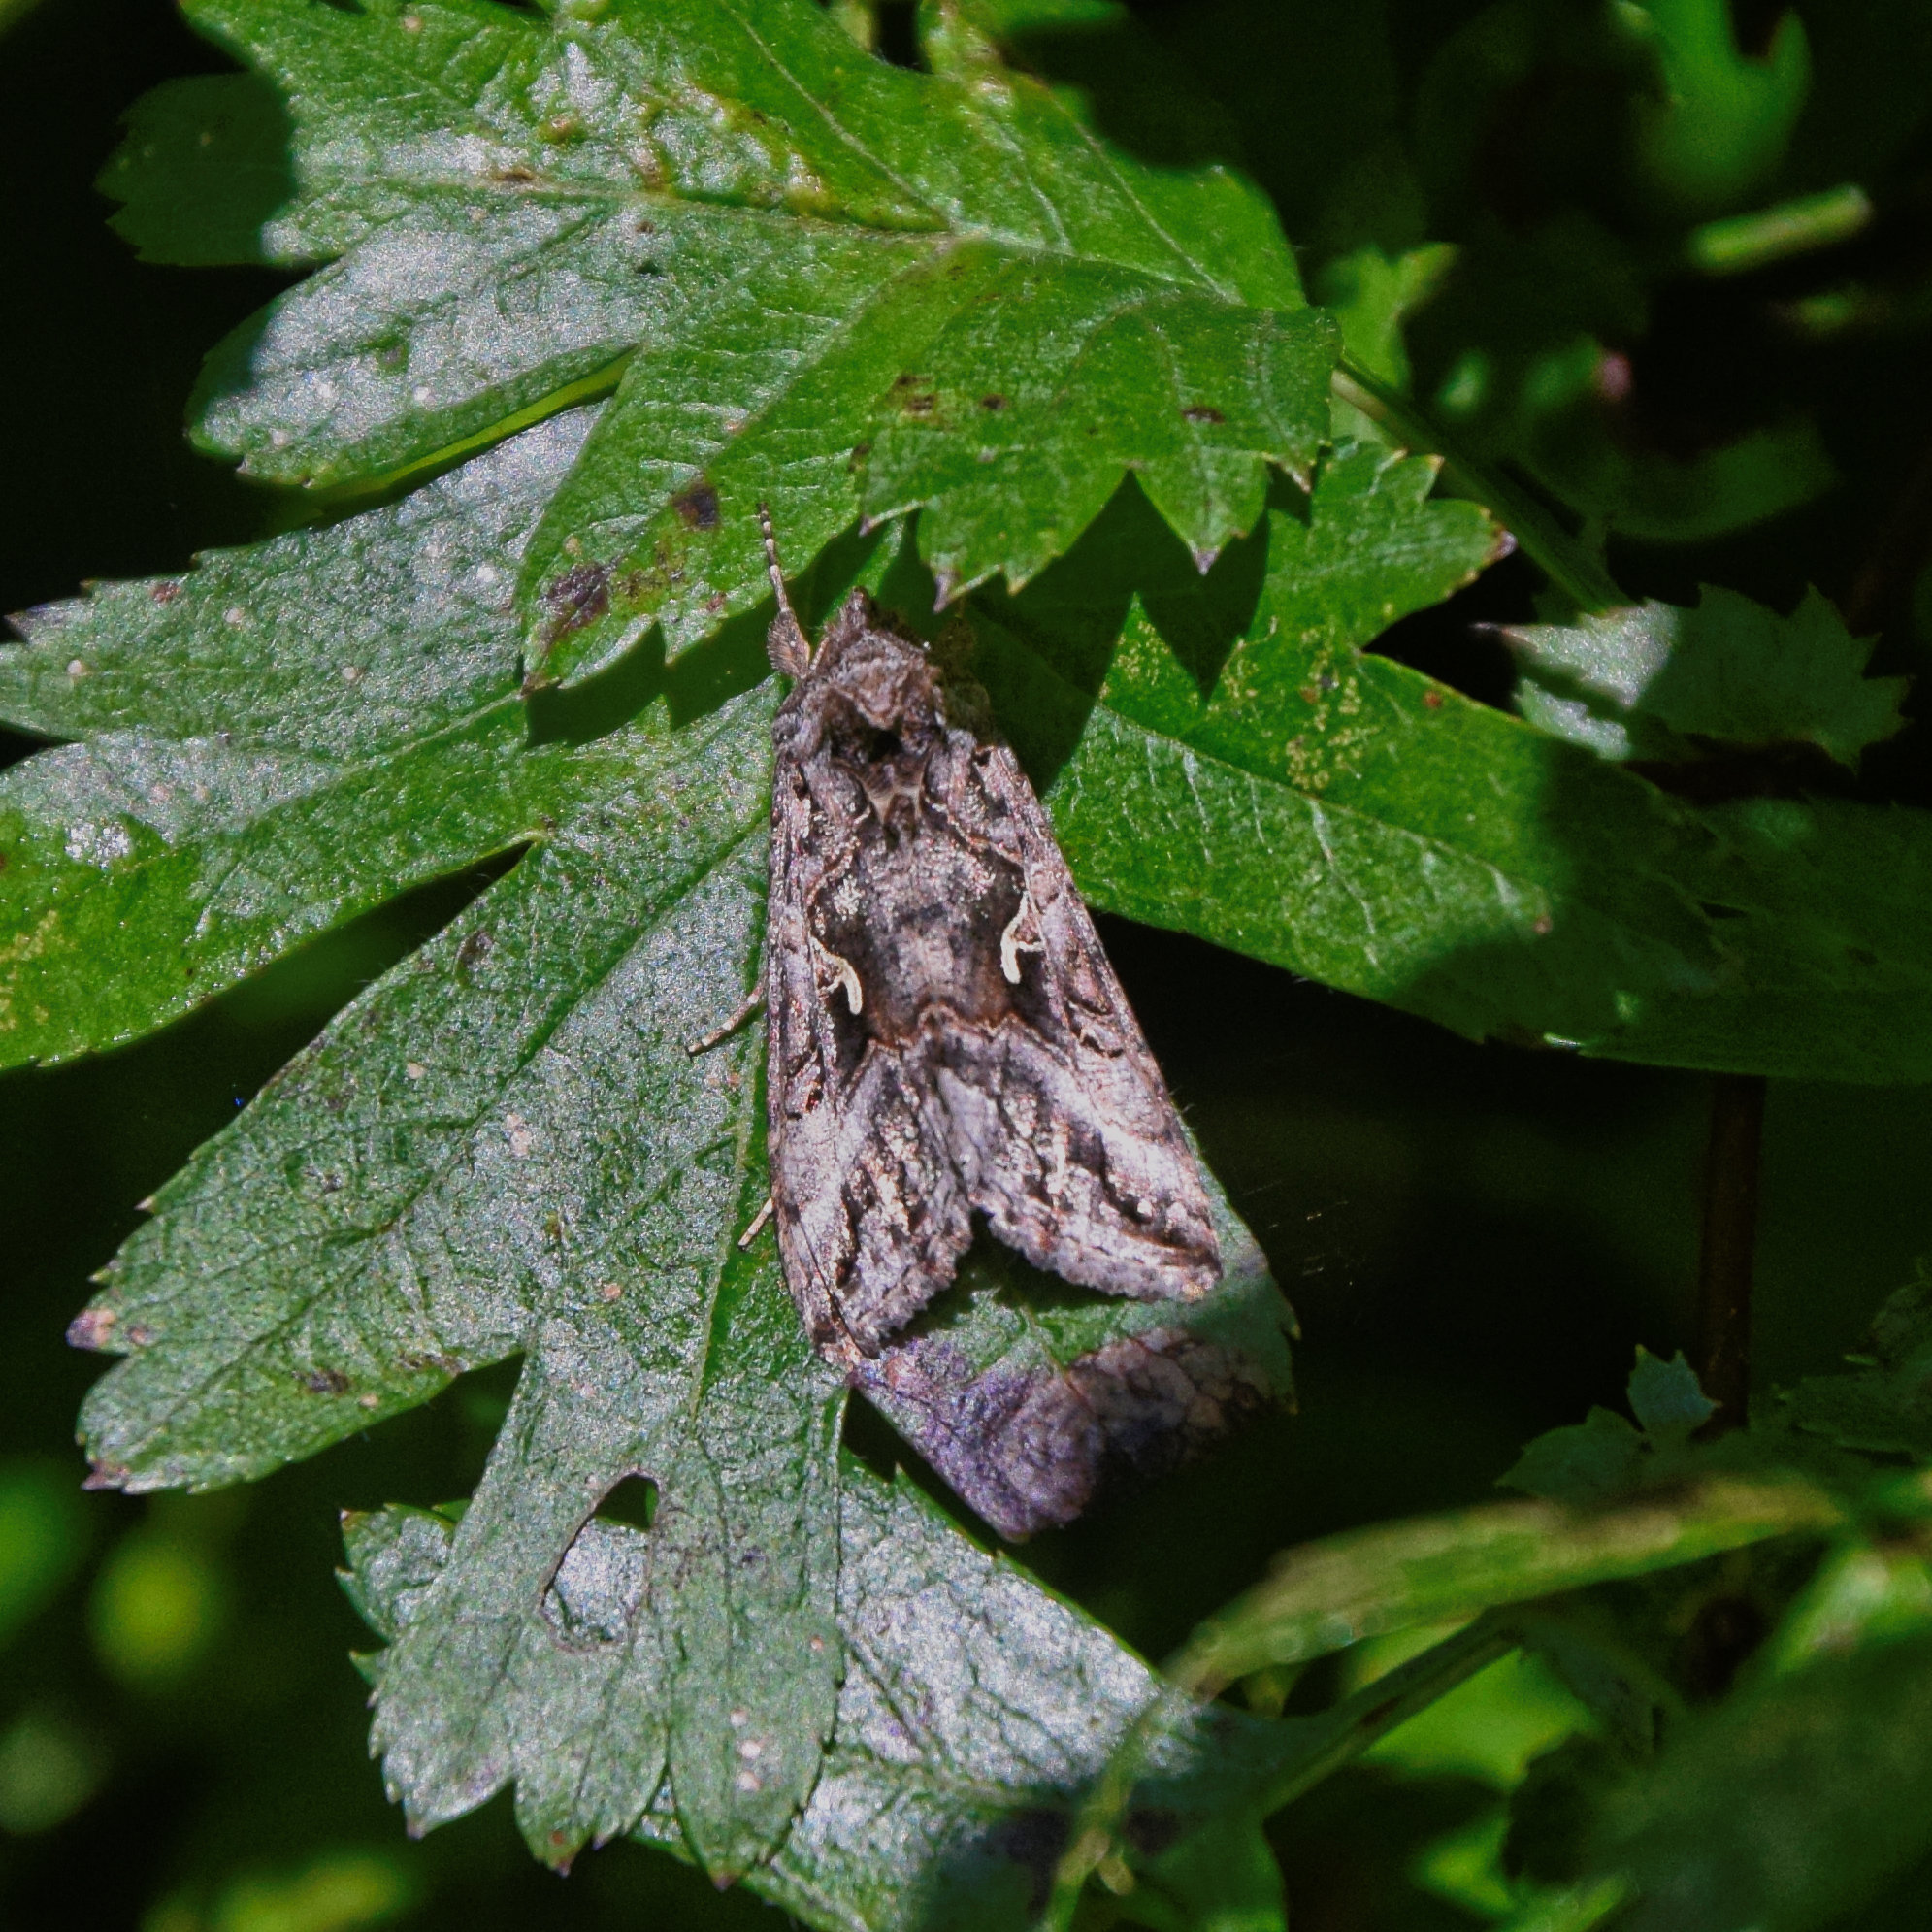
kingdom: Animalia
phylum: Arthropoda
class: Insecta
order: Lepidoptera
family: Noctuidae
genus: Autographa
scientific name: Autographa gamma
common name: Silver y
